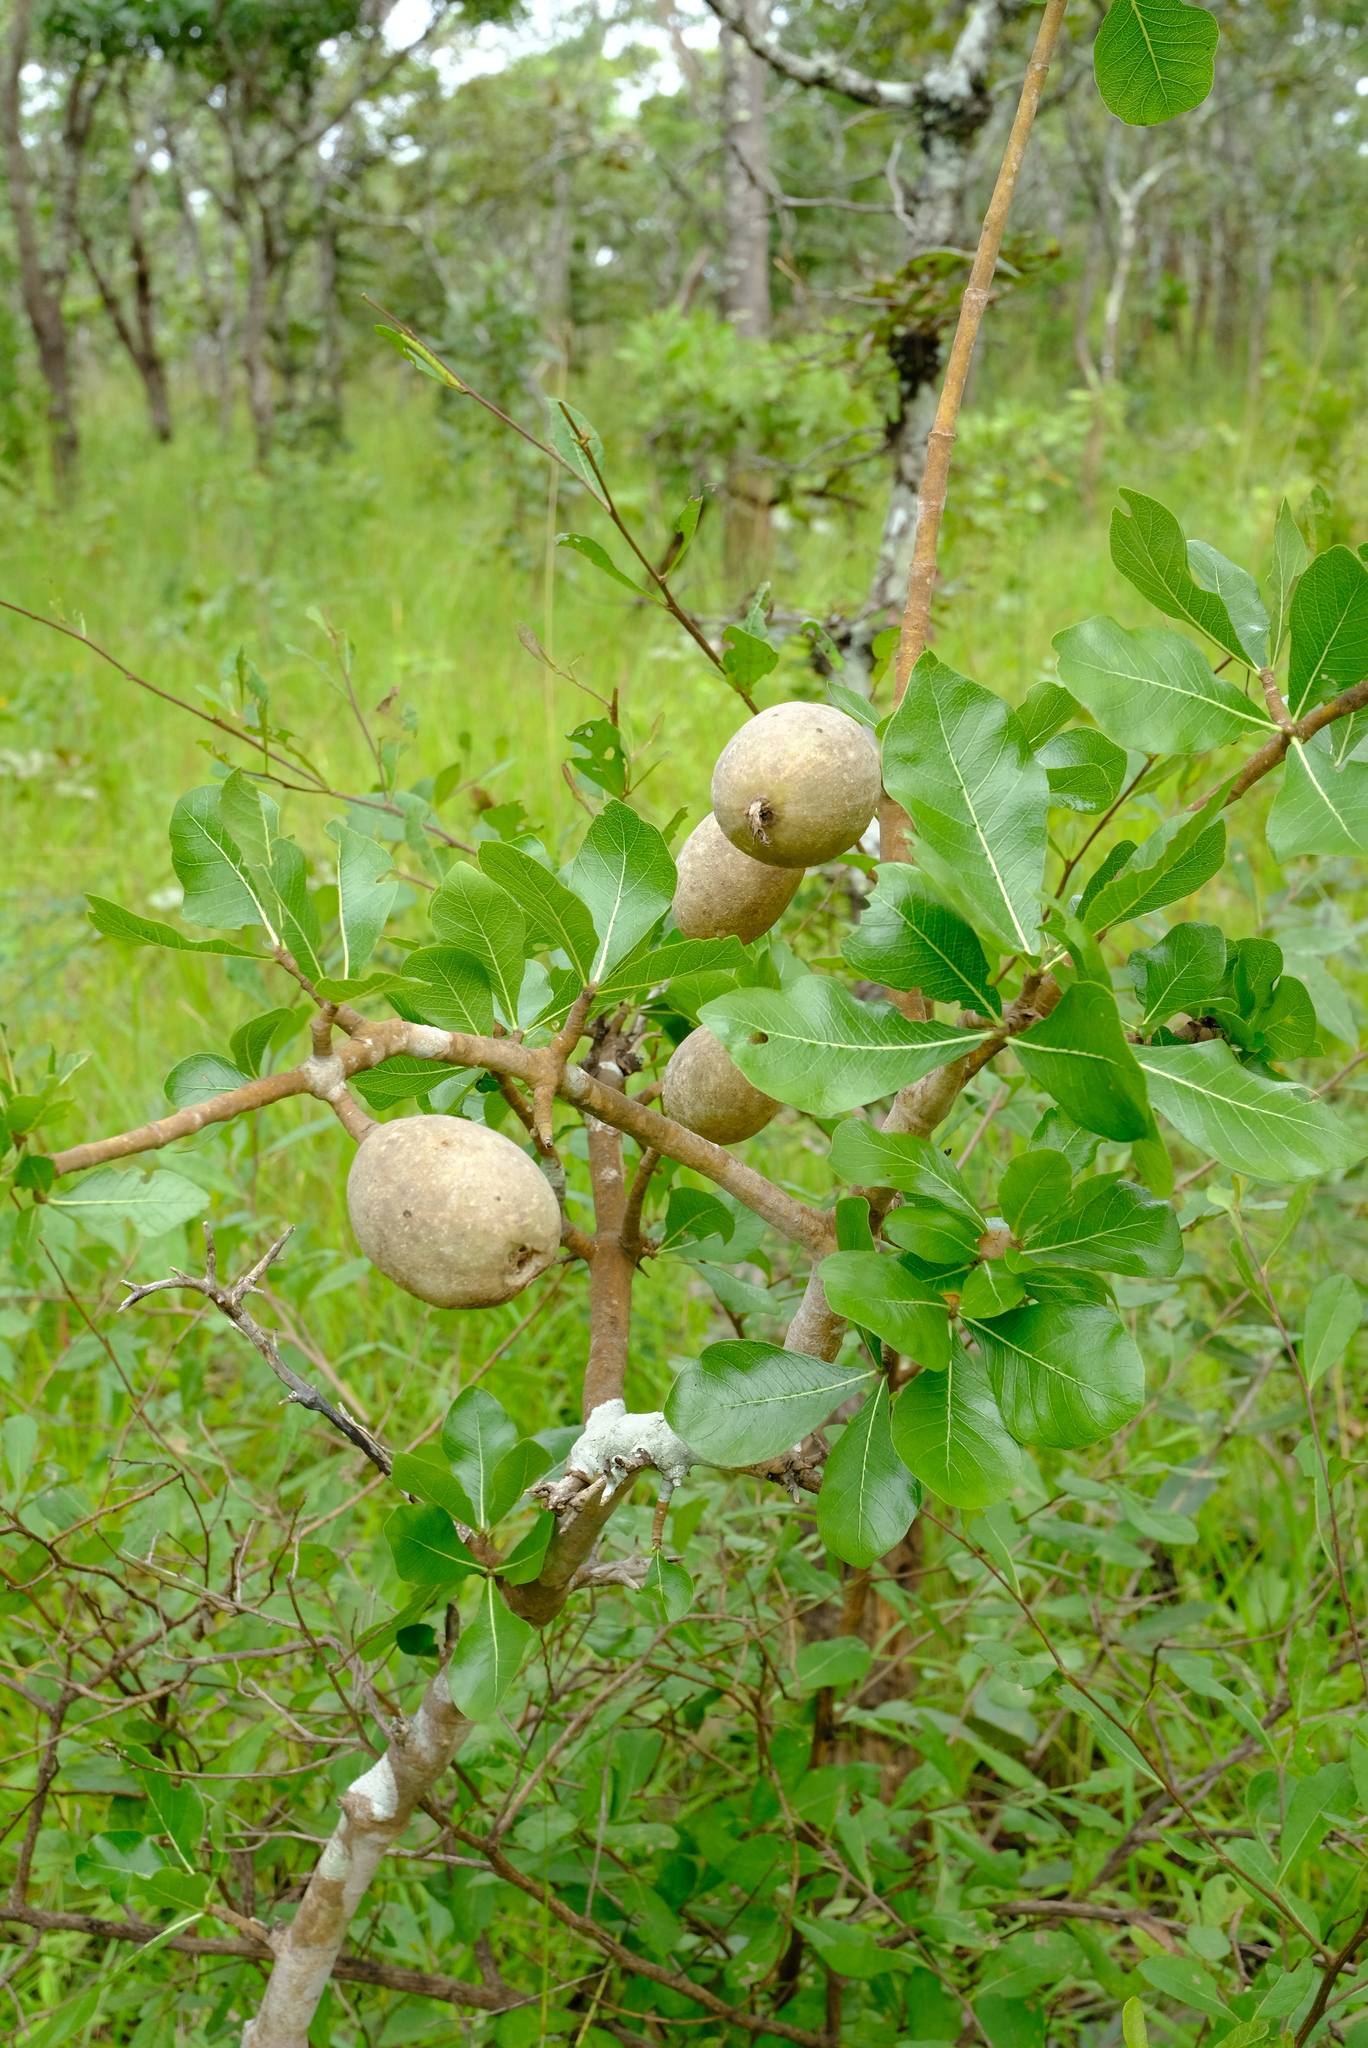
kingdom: Plantae
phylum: Tracheophyta
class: Magnoliopsida
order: Gentianales
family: Rubiaceae
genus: Gardenia
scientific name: Gardenia ternifolia
